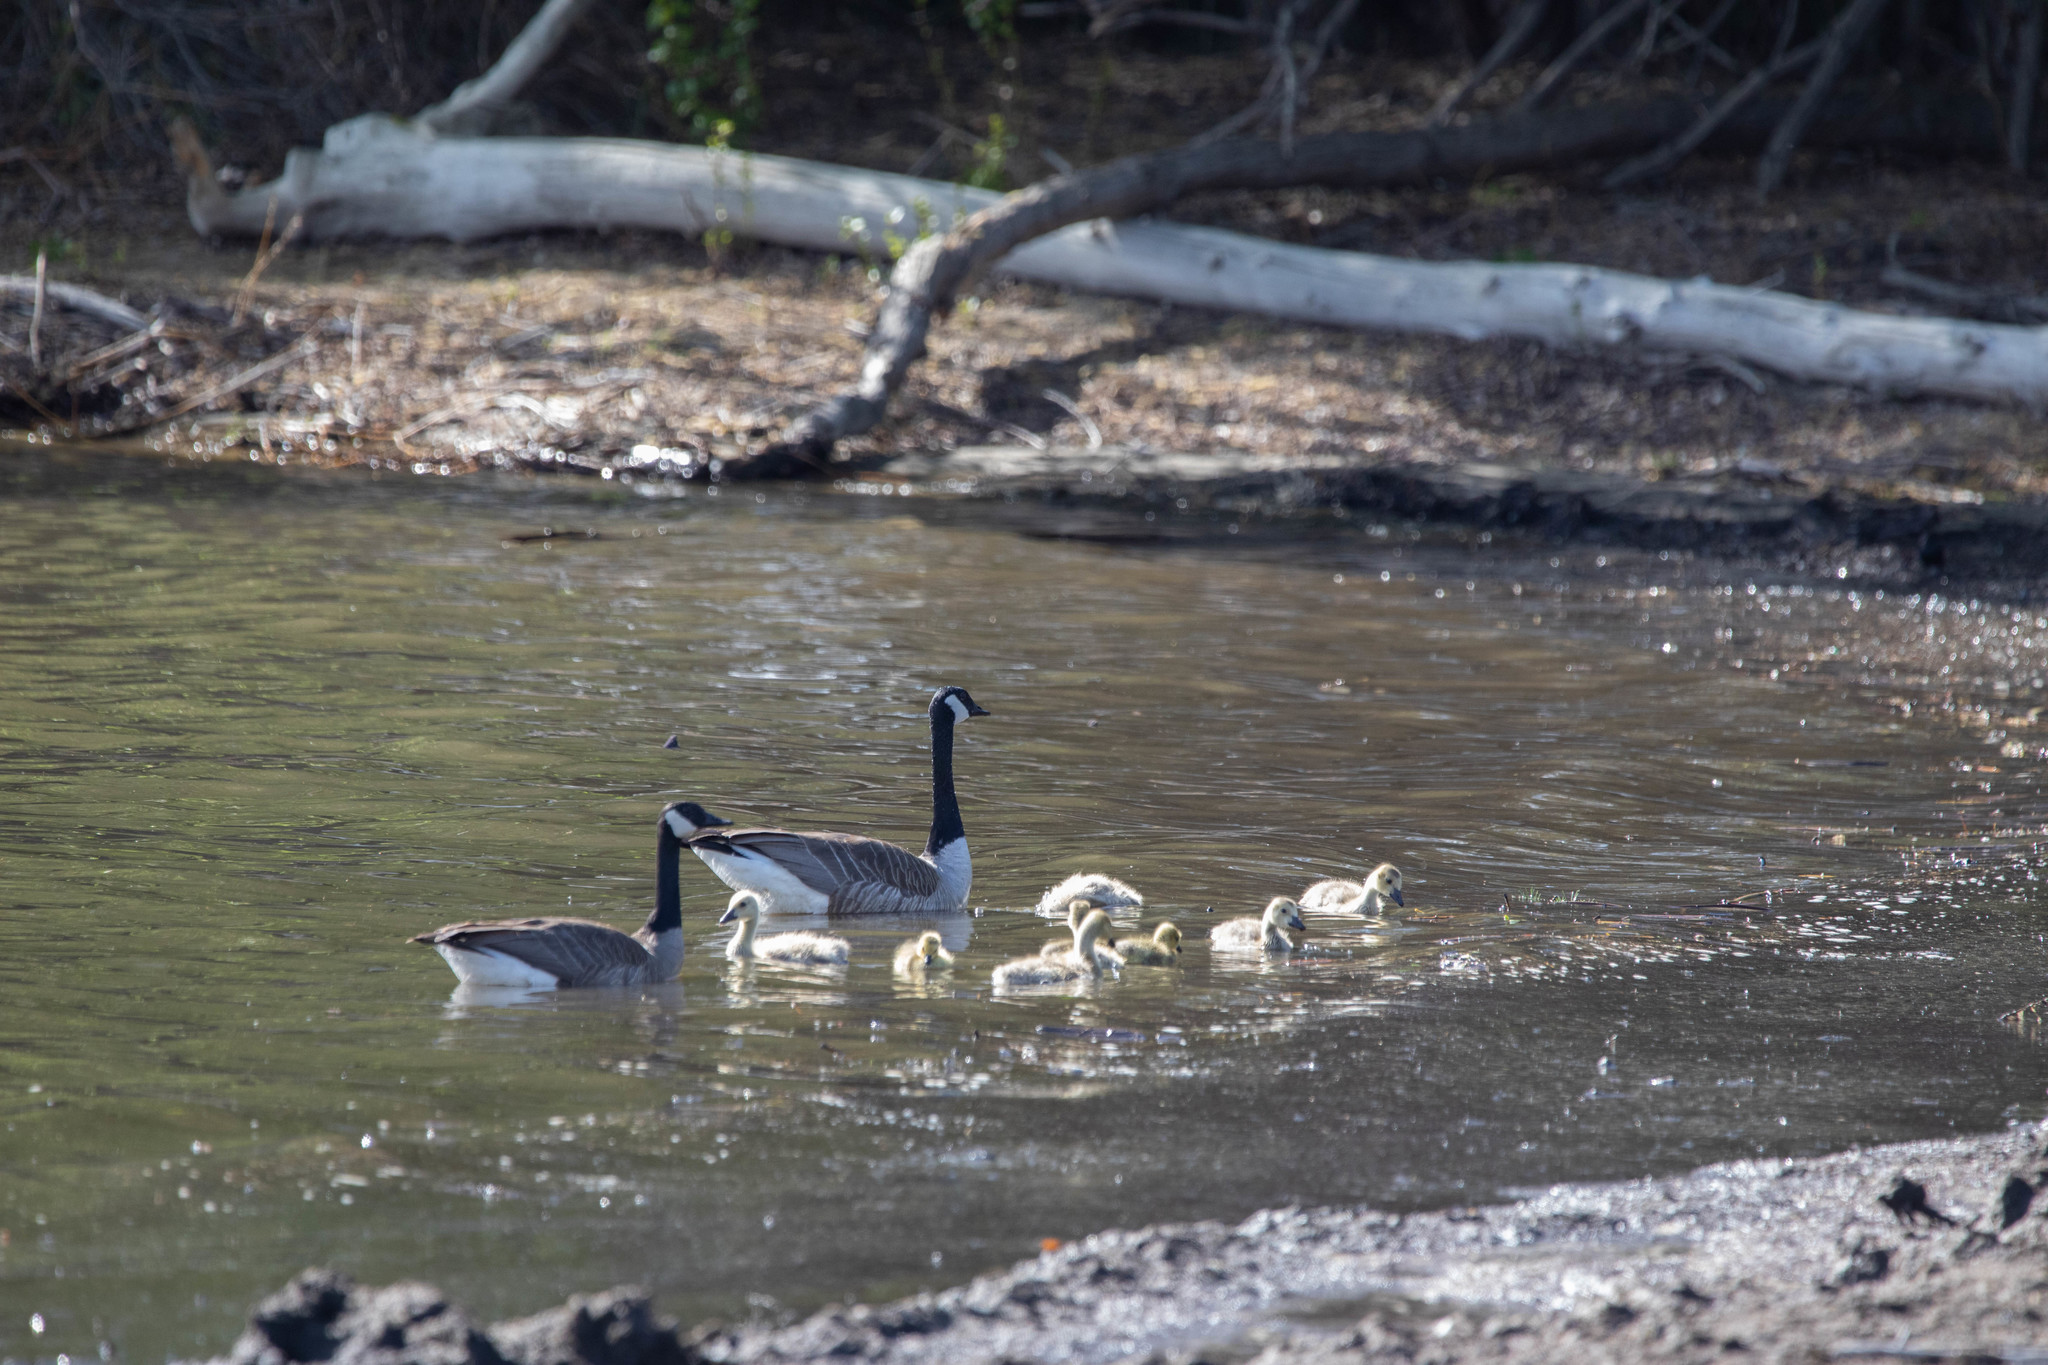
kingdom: Animalia
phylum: Chordata
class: Aves
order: Anseriformes
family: Anatidae
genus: Branta
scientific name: Branta canadensis
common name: Canada goose
